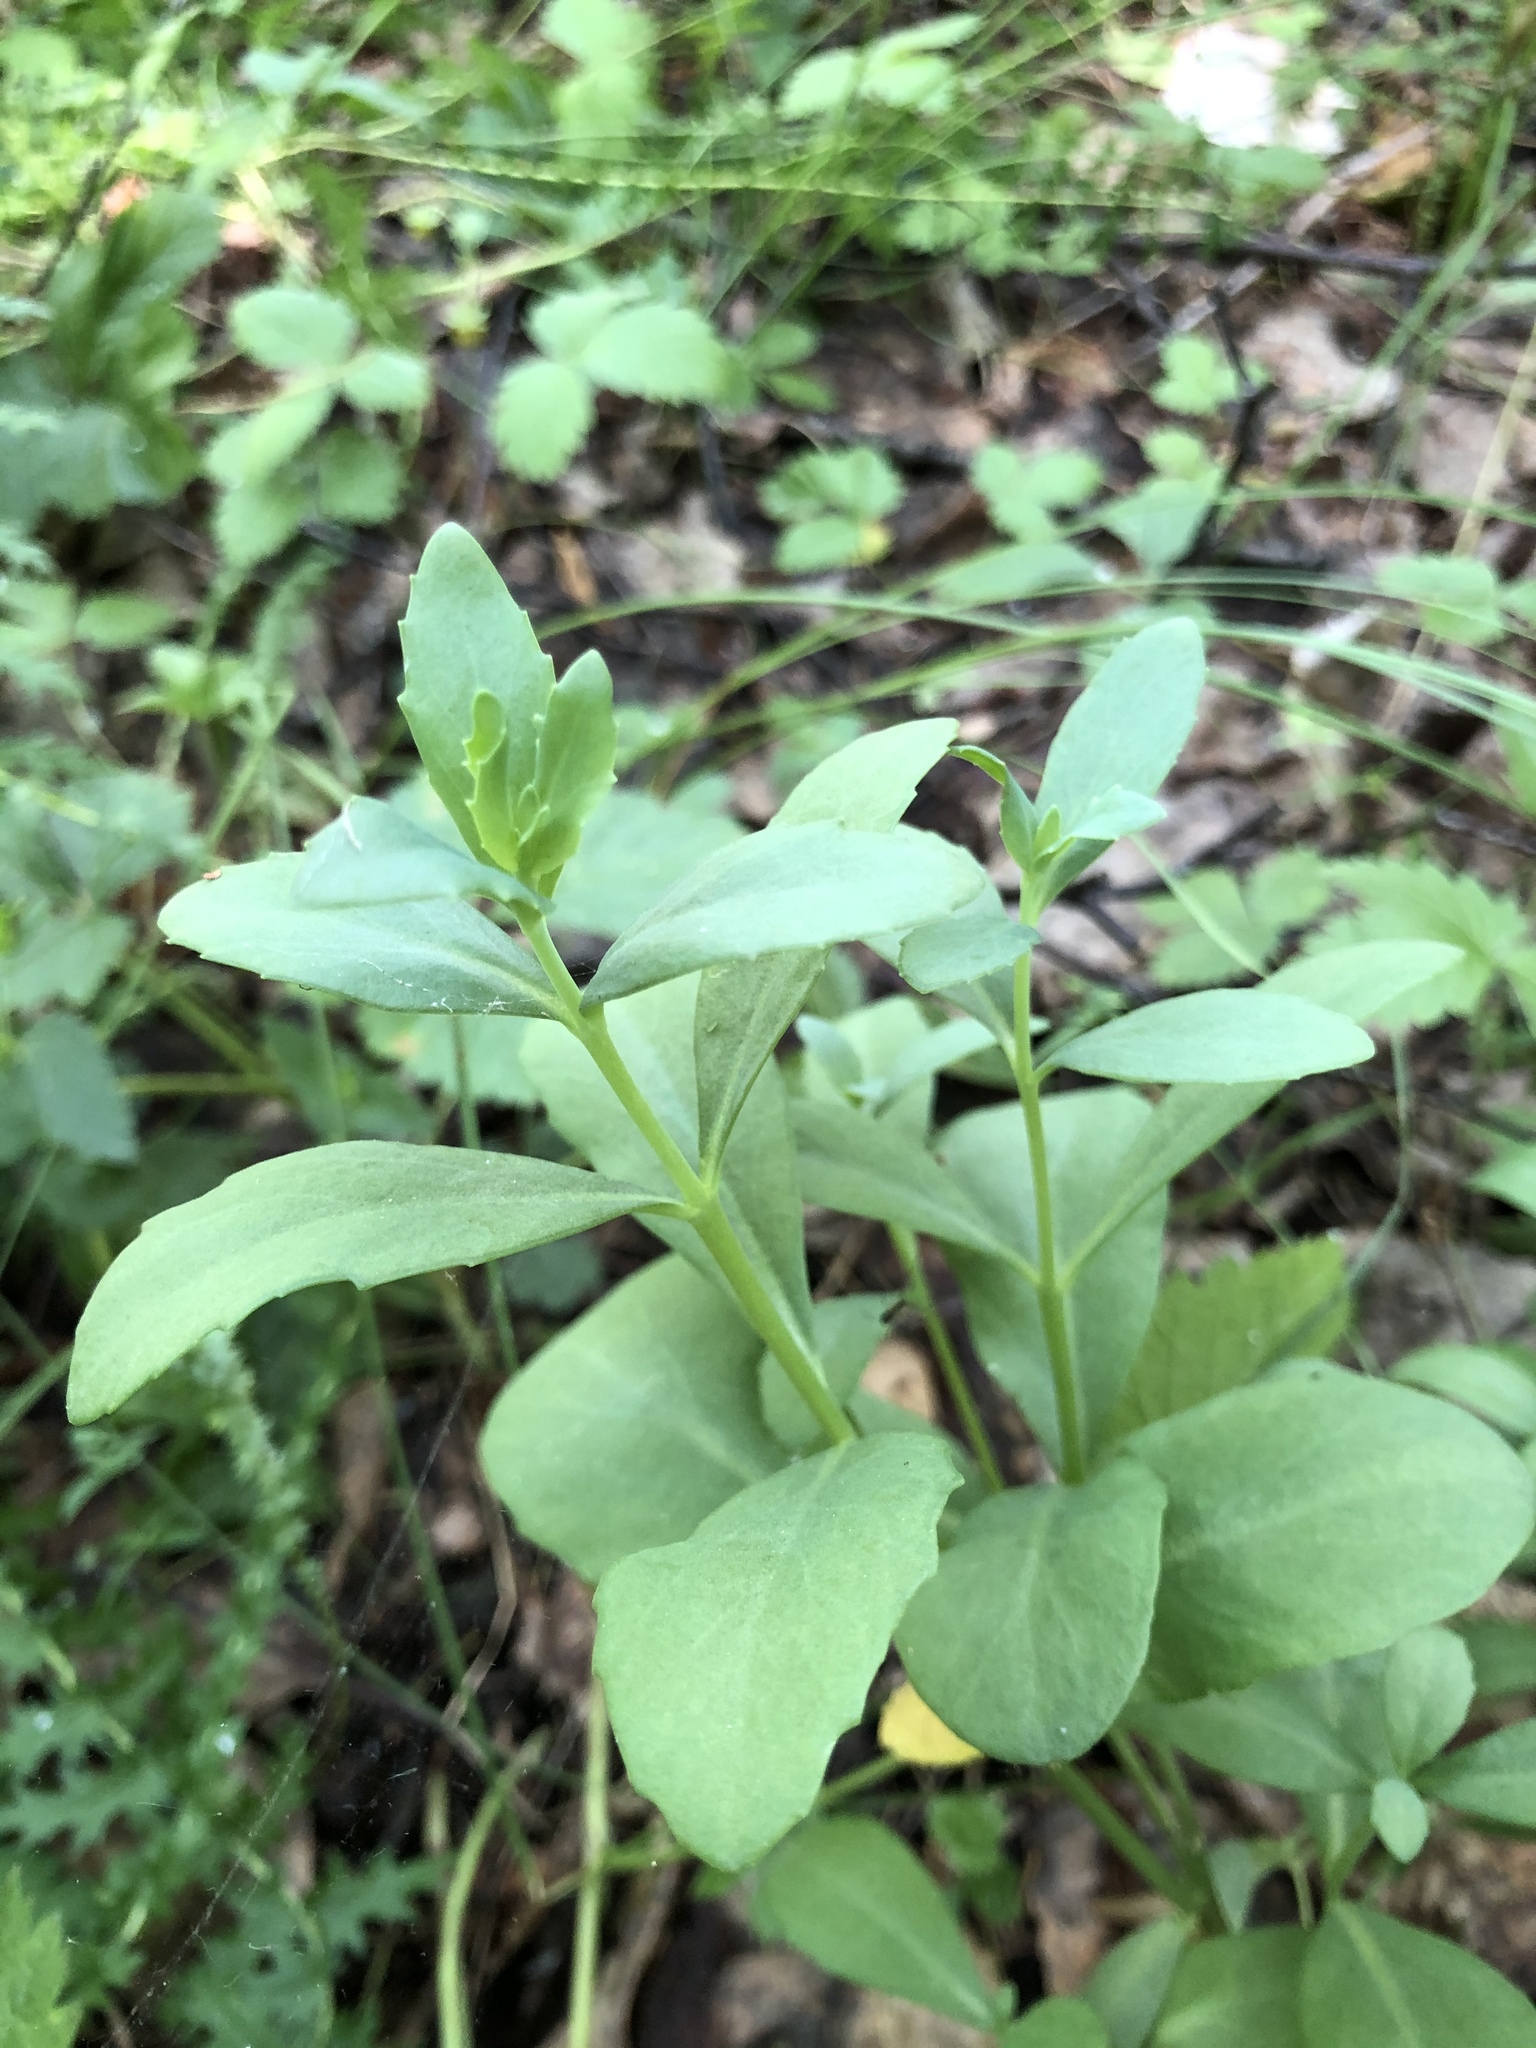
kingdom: Plantae
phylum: Tracheophyta
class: Magnoliopsida
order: Saxifragales
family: Crassulaceae
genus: Hylotelephium
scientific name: Hylotelephium telephium
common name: Live-forever
